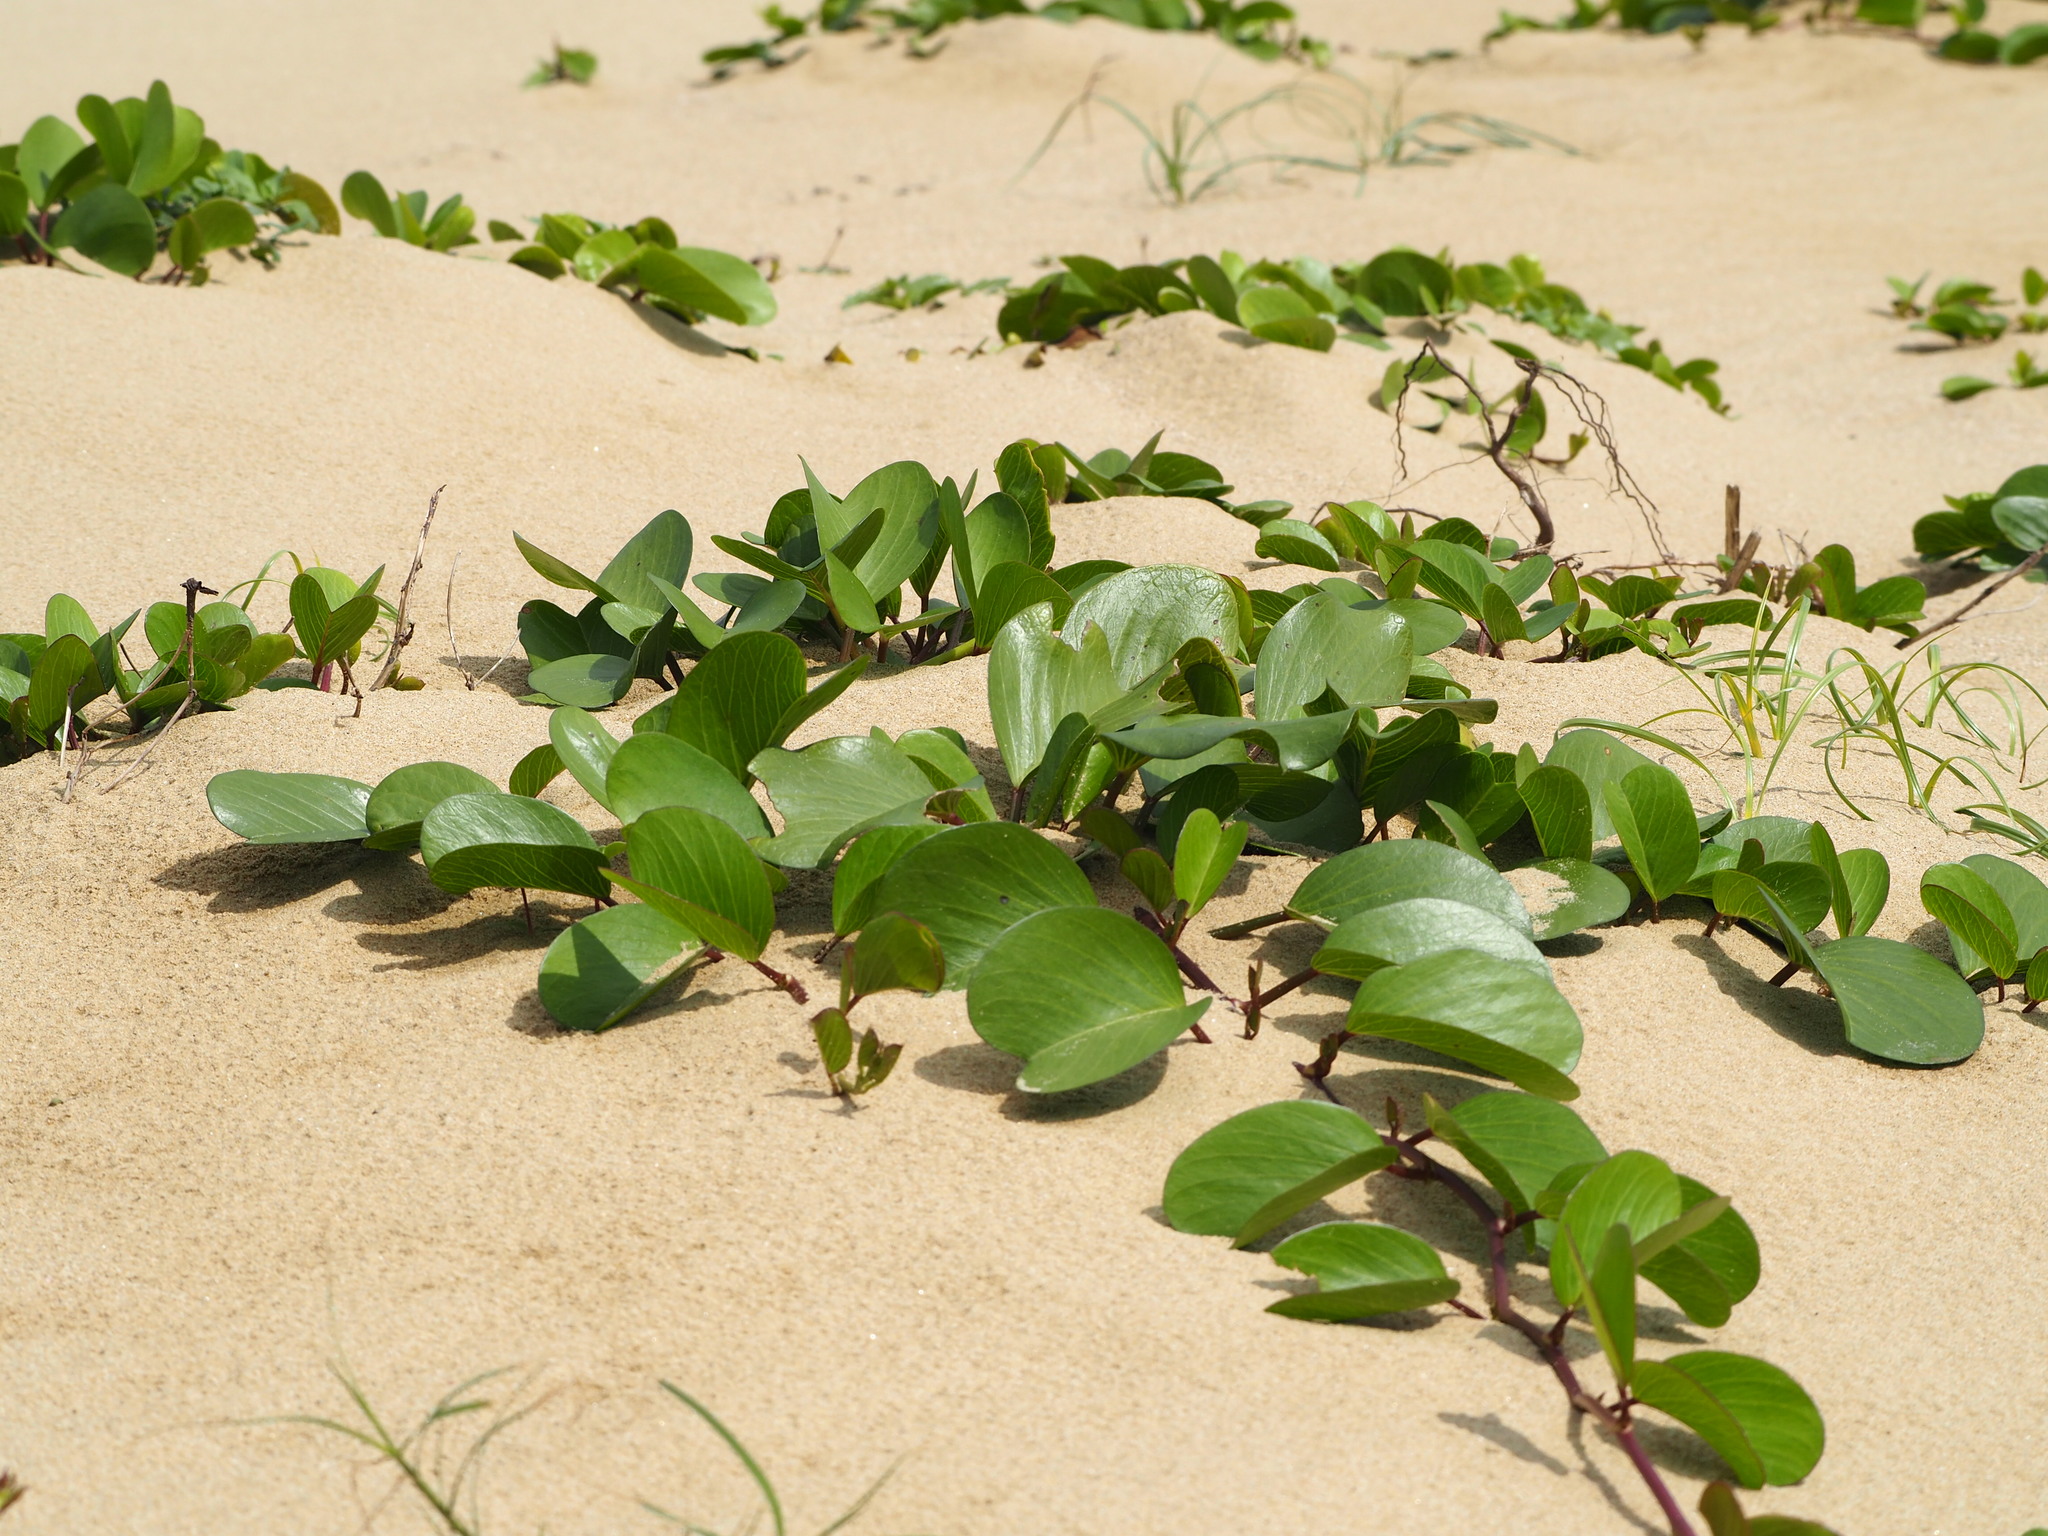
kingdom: Plantae
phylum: Tracheophyta
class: Magnoliopsida
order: Solanales
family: Convolvulaceae
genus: Ipomoea
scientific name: Ipomoea pes-caprae
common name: Beach morning glory
